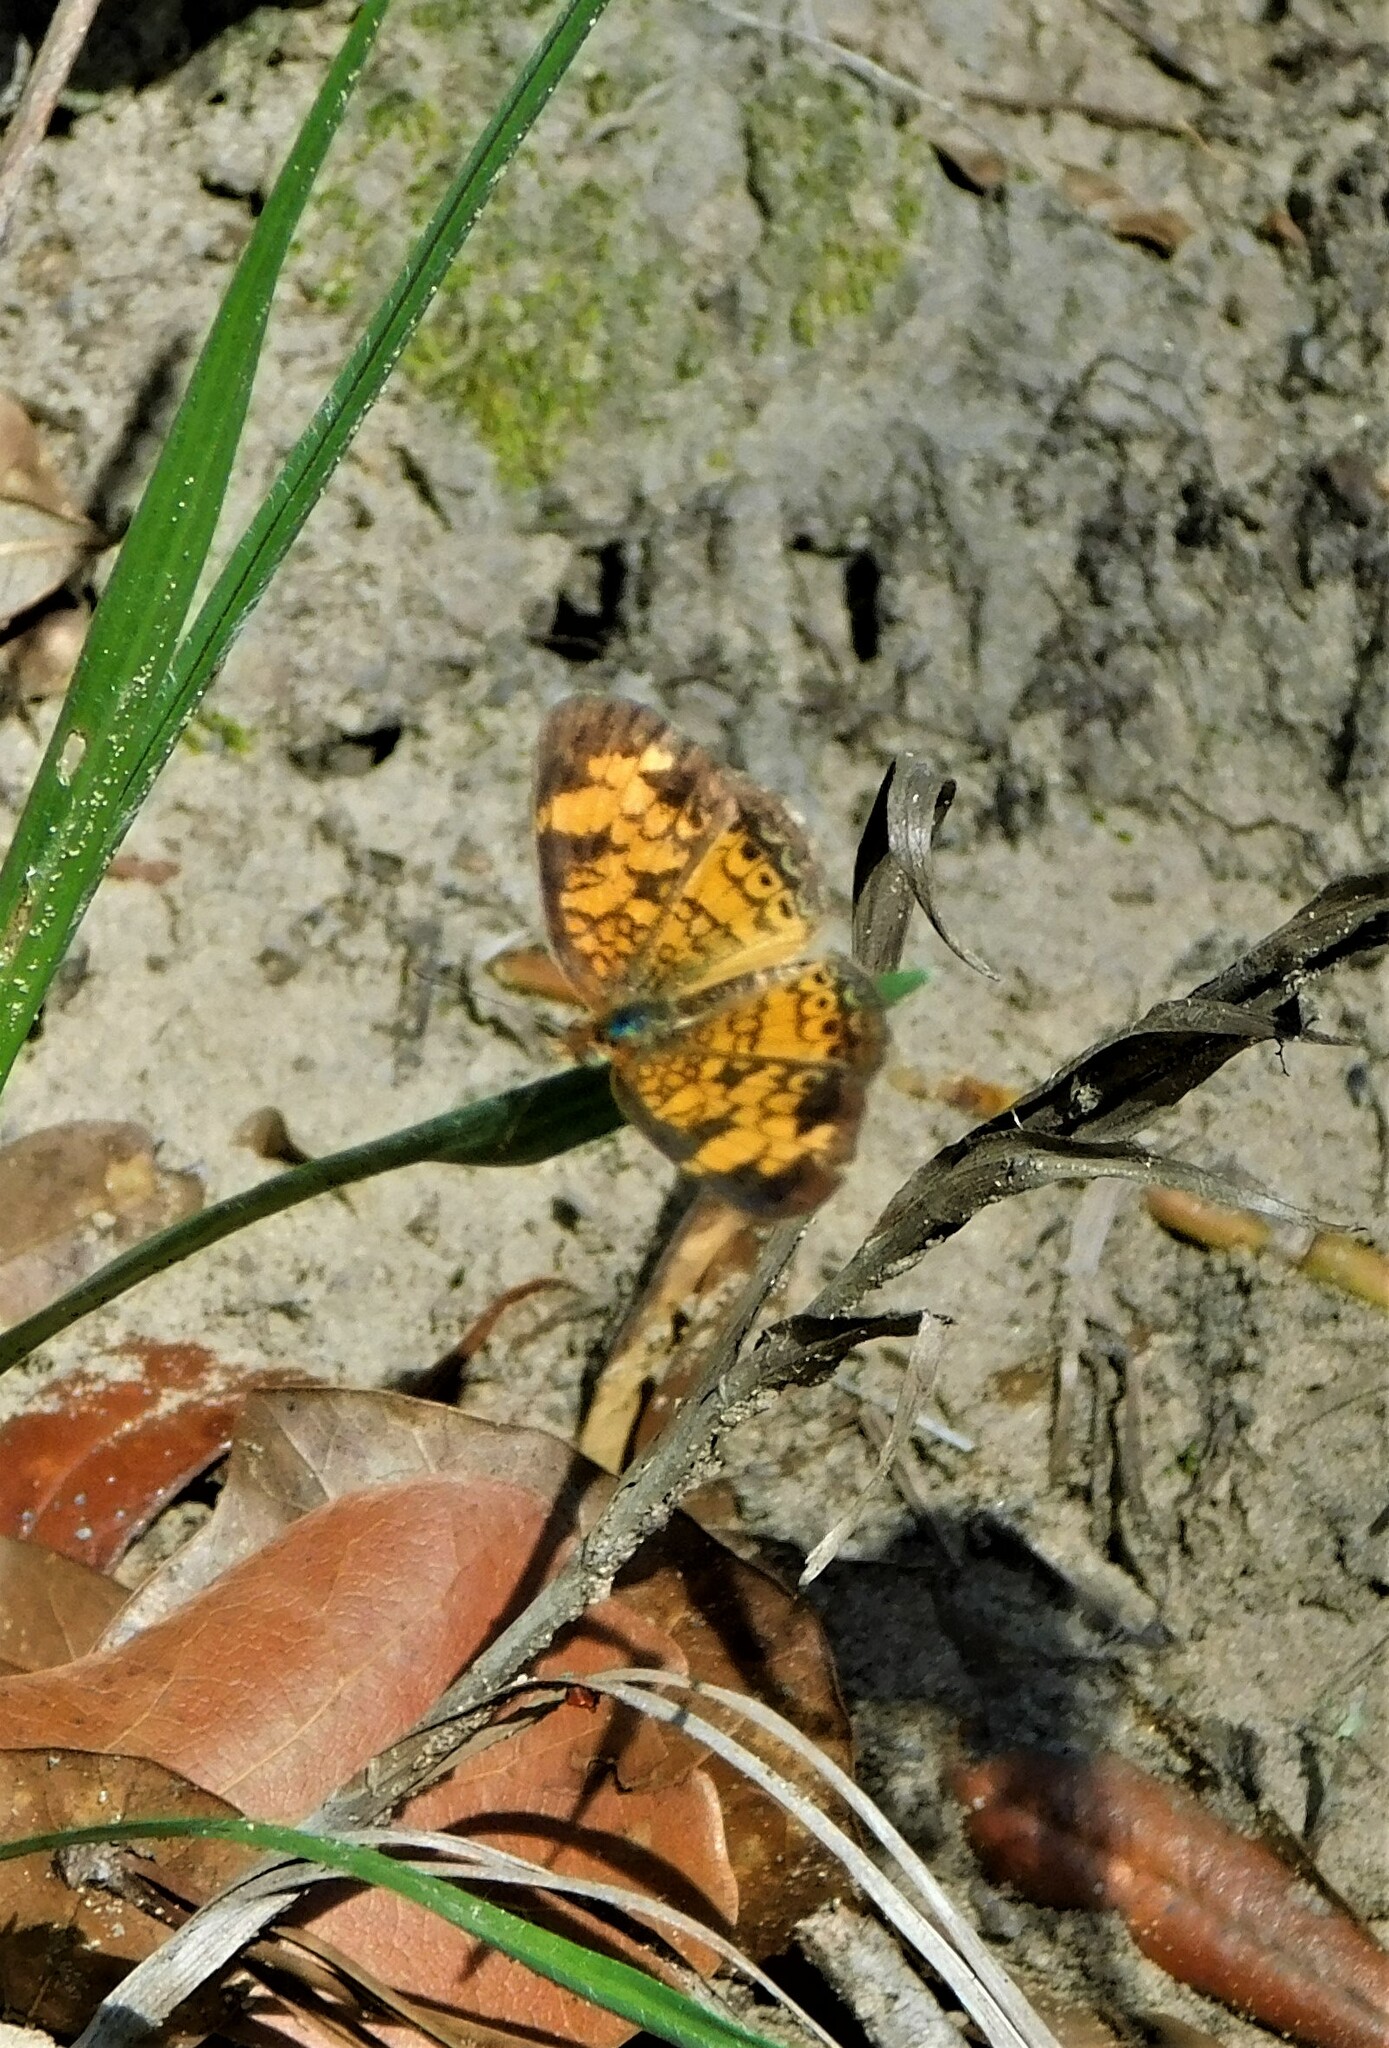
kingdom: Animalia
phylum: Arthropoda
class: Insecta
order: Lepidoptera
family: Nymphalidae
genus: Phyciodes
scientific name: Phyciodes tharos
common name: Pearl crescent
